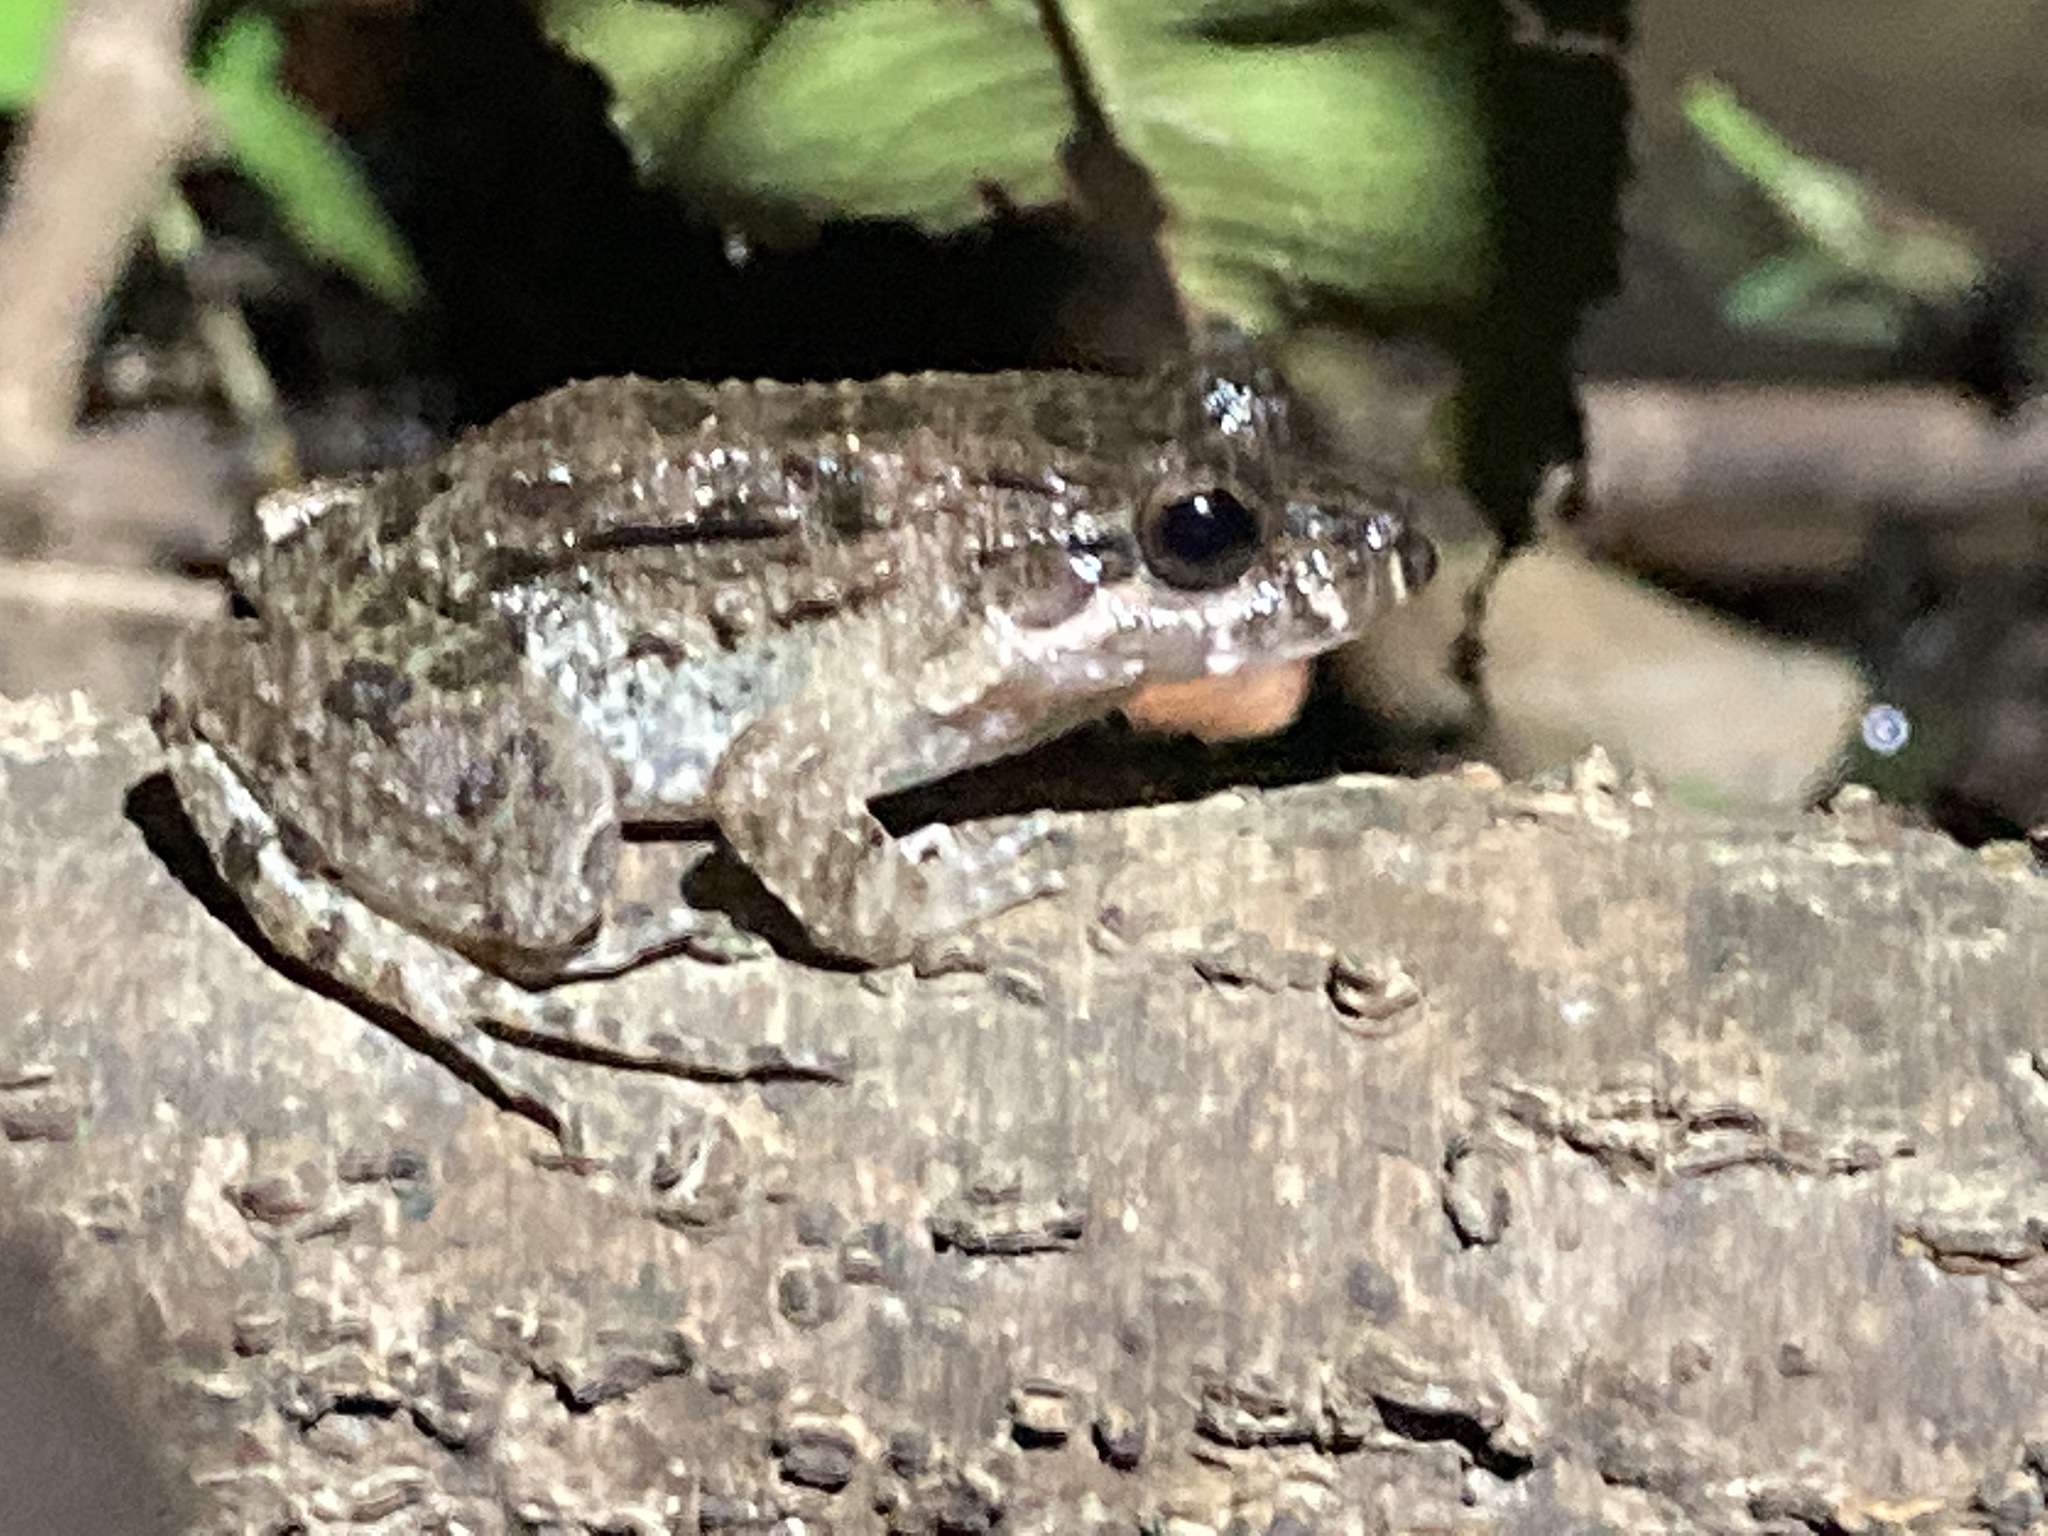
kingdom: Animalia
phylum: Chordata
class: Amphibia
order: Anura
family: Leptodactylidae
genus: Leptodactylus
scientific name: Leptodactylus petersii
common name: Peters' thin-toed frog
